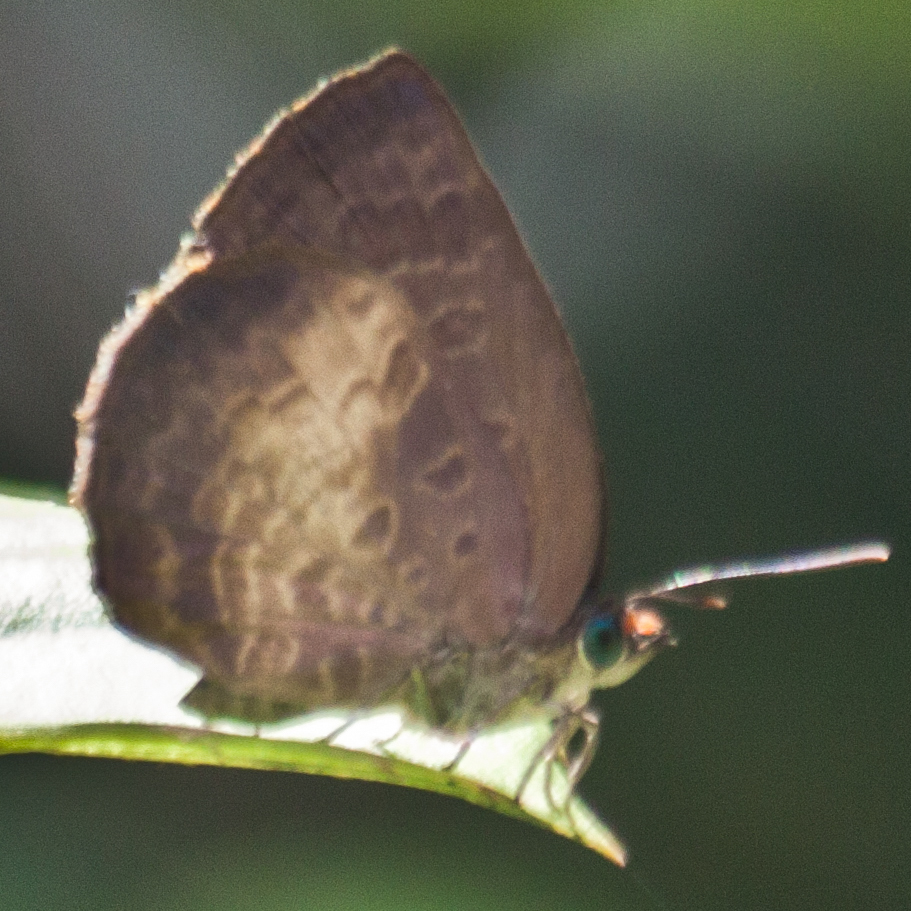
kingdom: Animalia
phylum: Arthropoda
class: Insecta
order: Lepidoptera
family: Lycaenidae
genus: Arhopala
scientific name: Arhopala perimuta
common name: Yellowdisc oakblue
